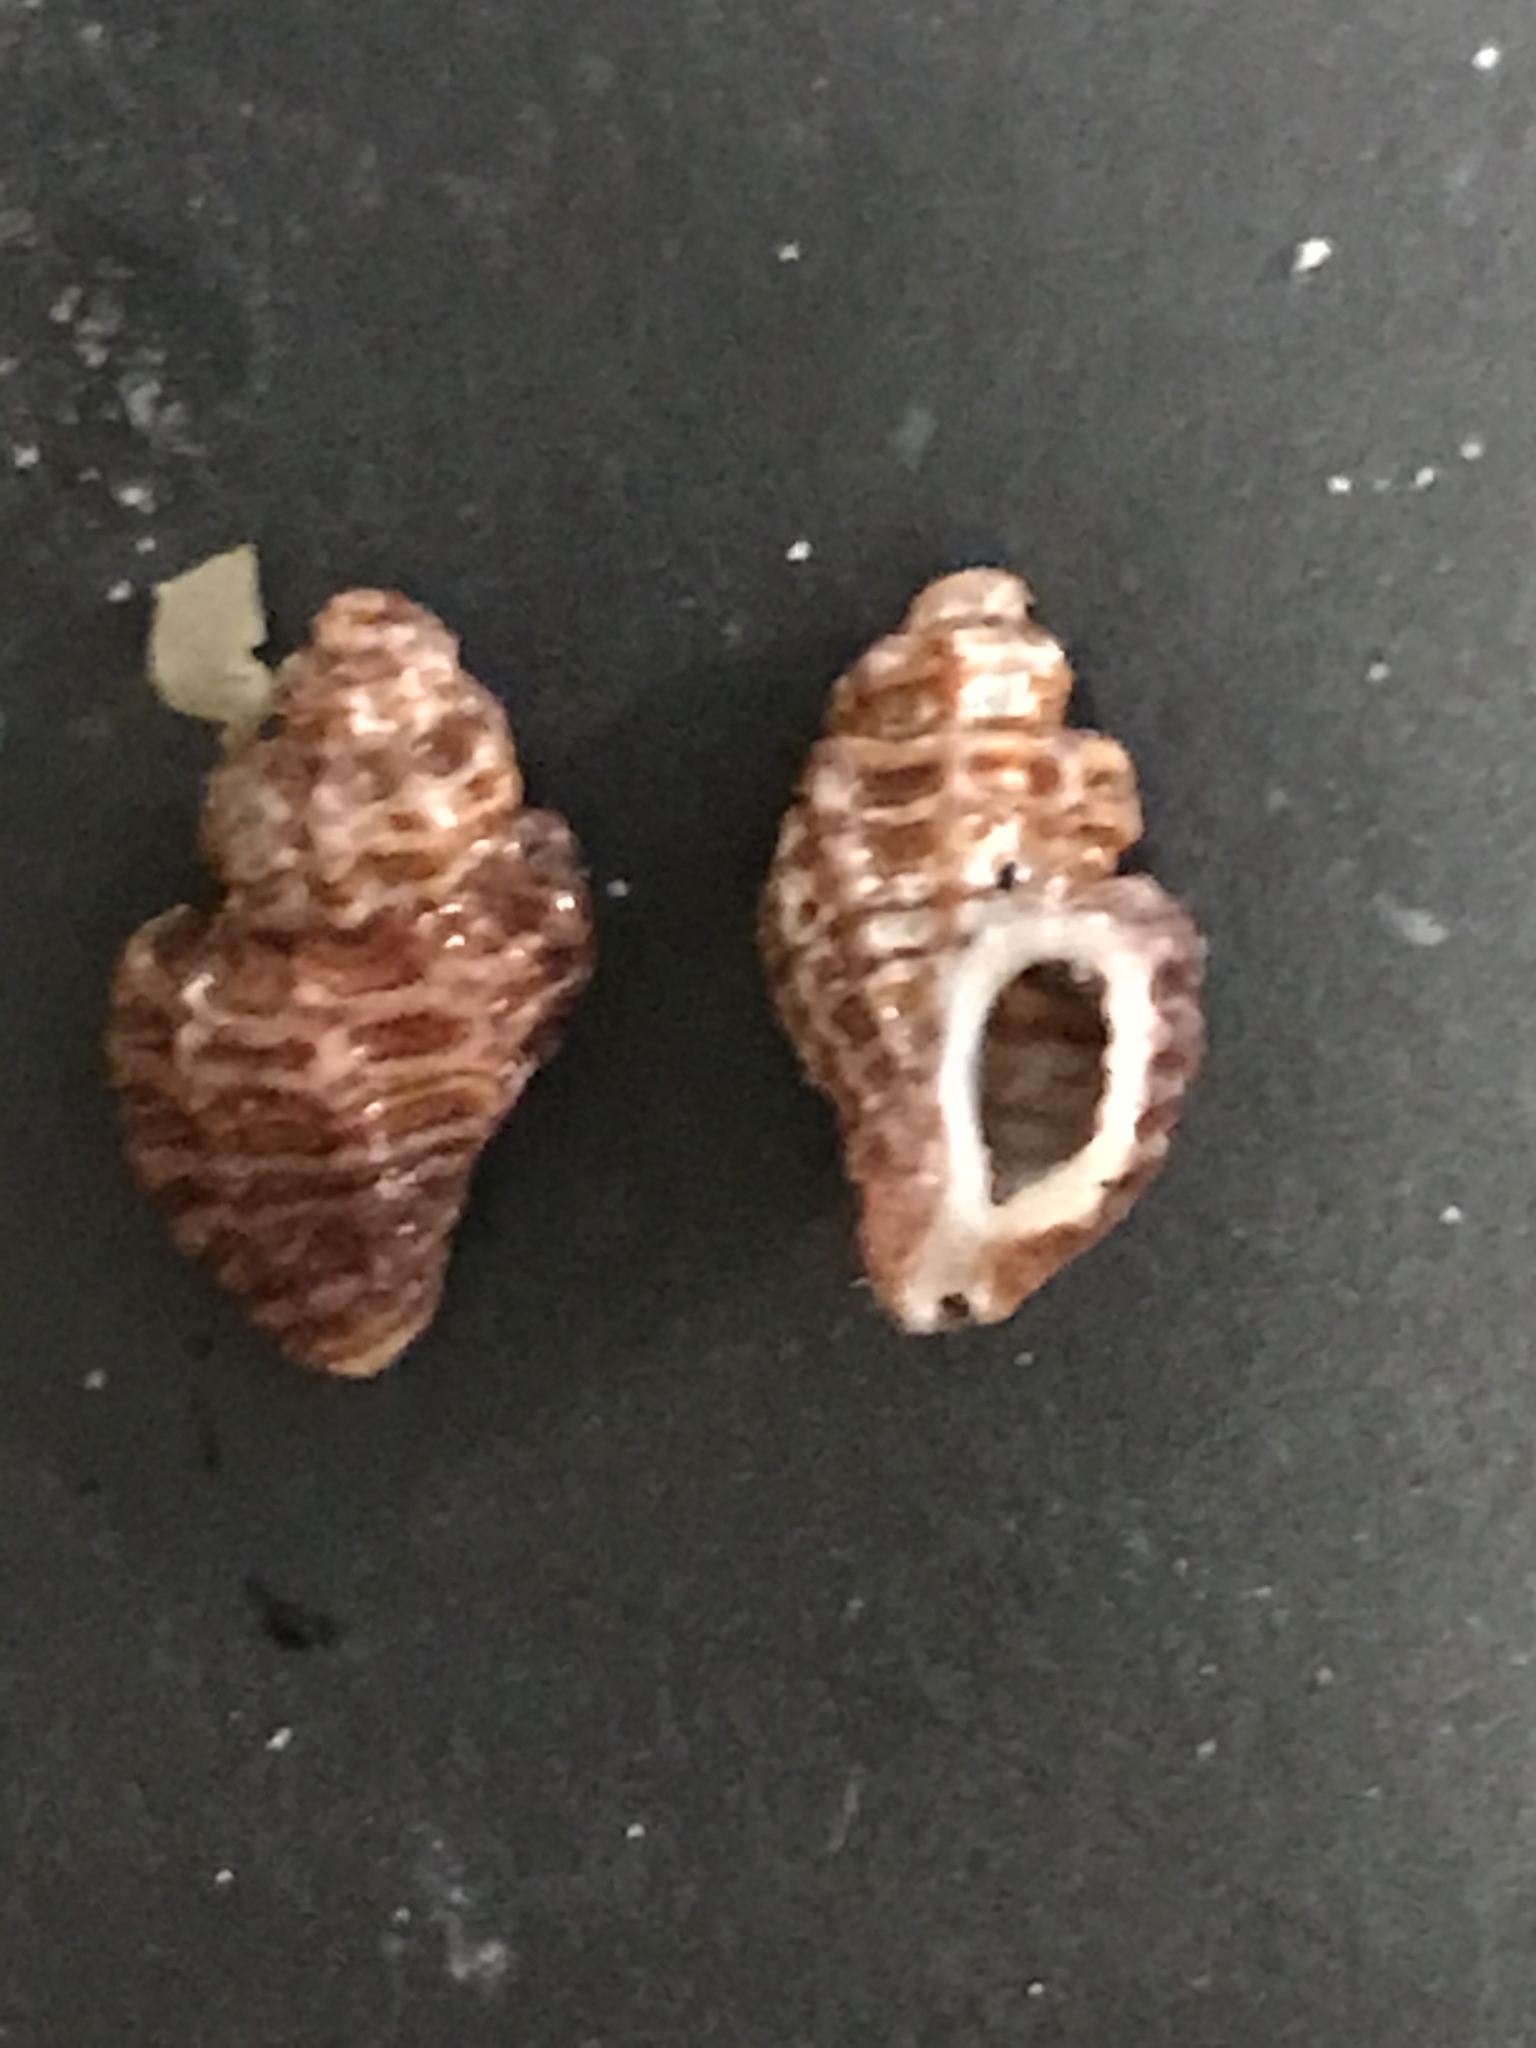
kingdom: Animalia
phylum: Mollusca
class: Gastropoda
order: Neogastropoda
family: Muricidae
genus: Paciocinebrina
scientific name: Paciocinebrina atropurpurea
